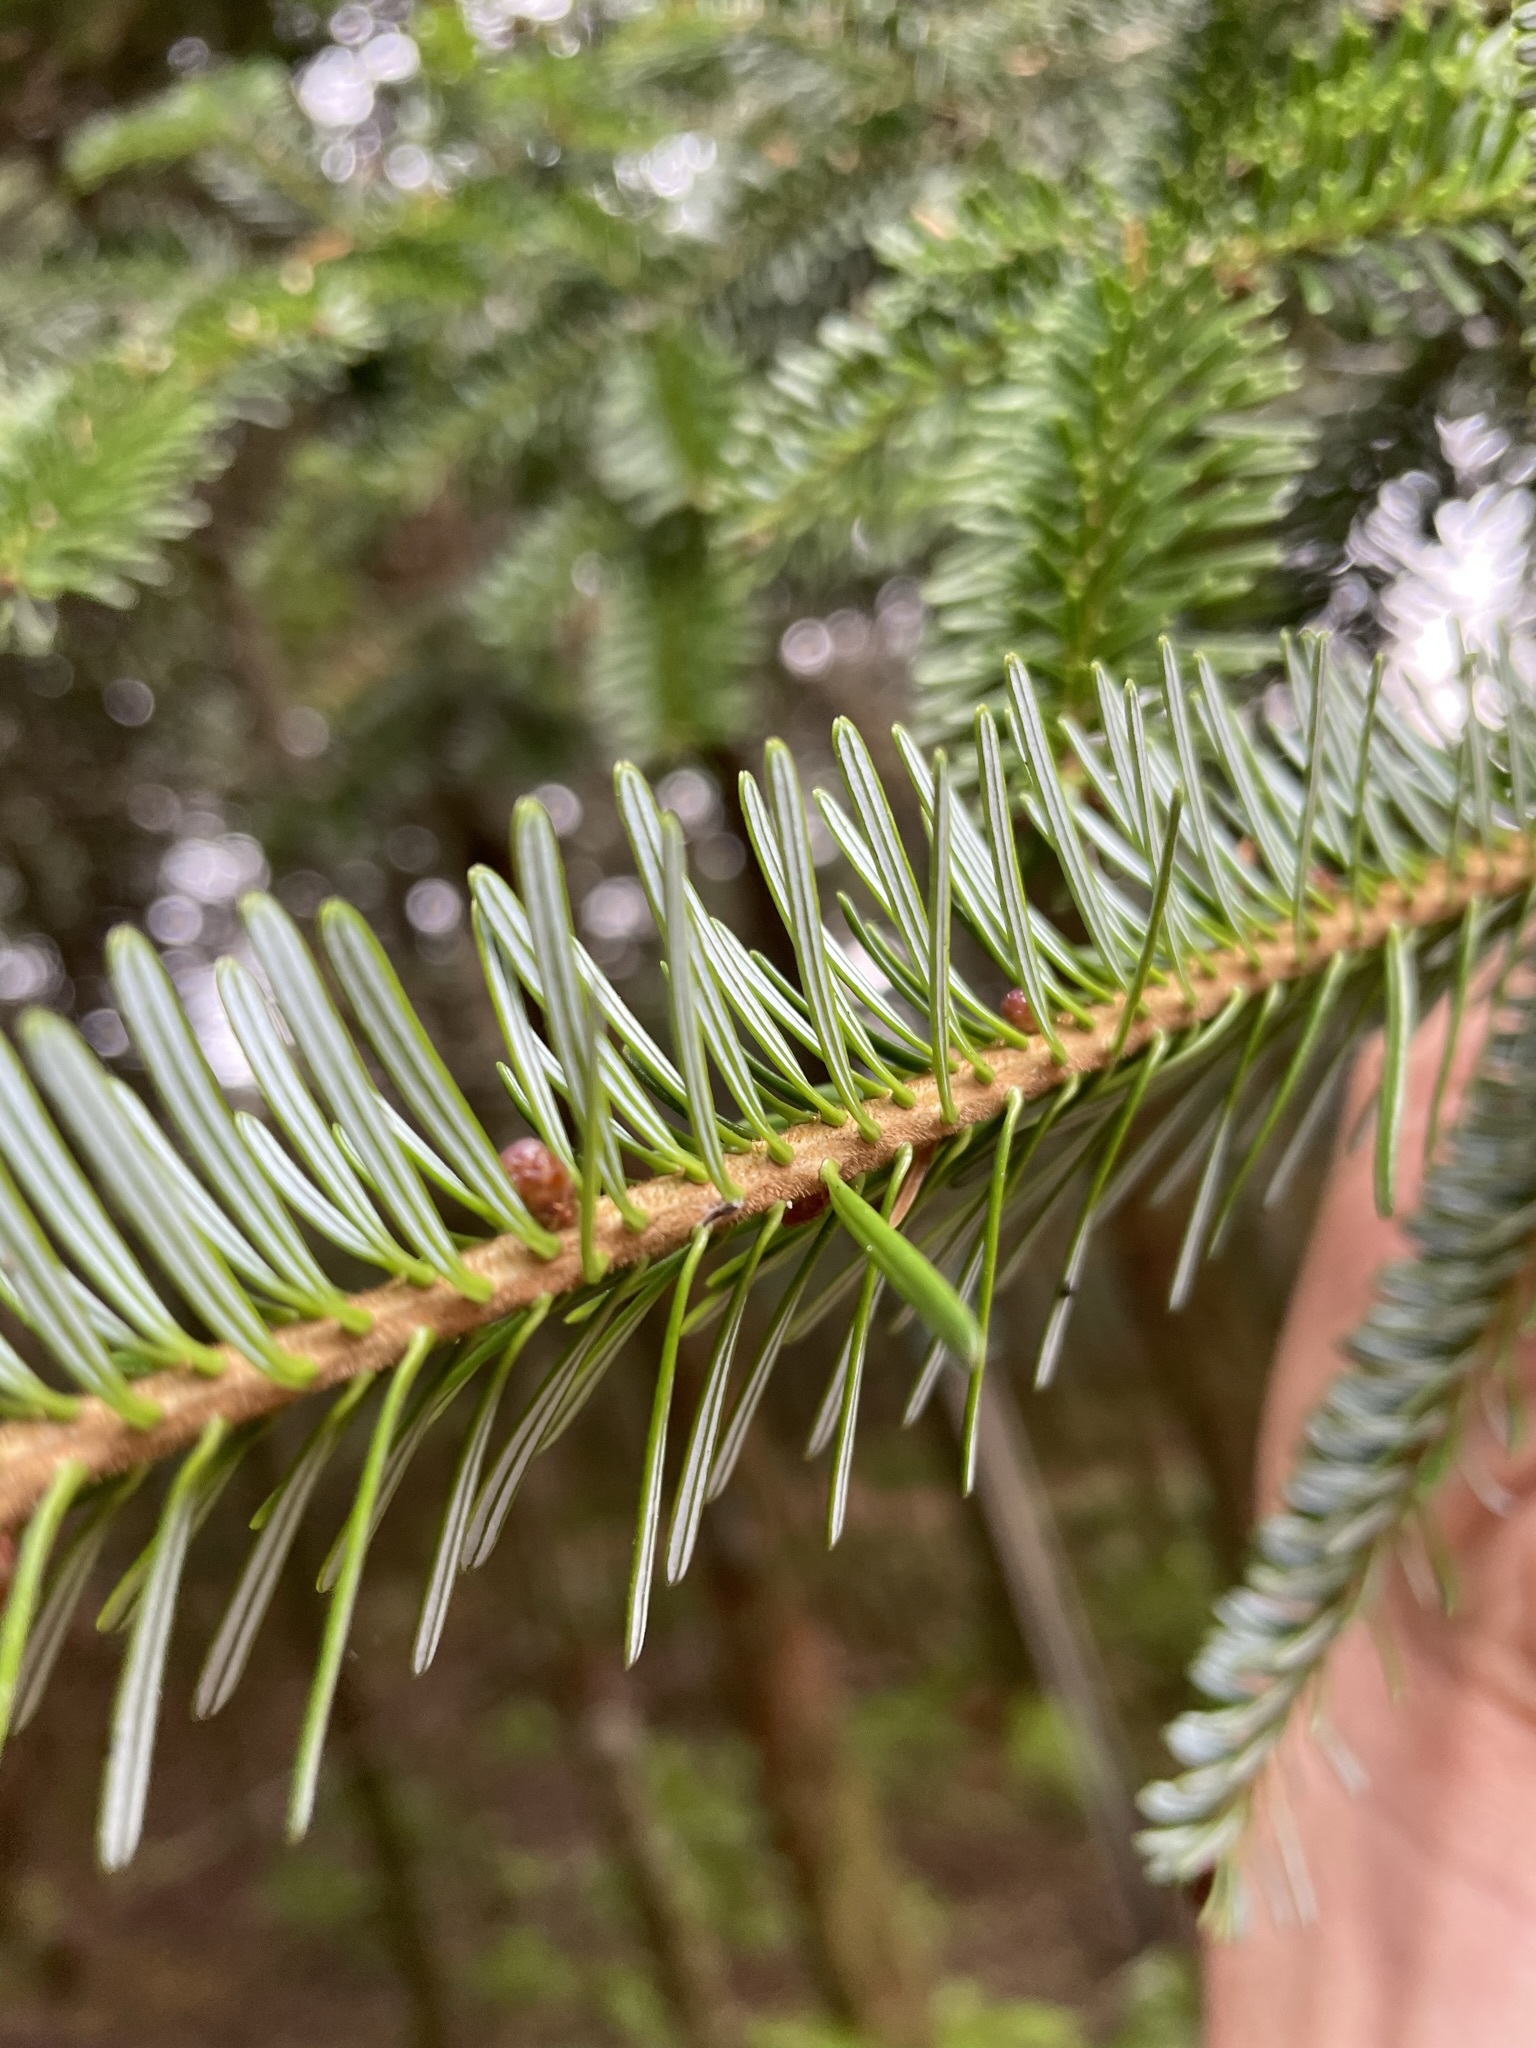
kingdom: Plantae
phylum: Tracheophyta
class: Pinopsida
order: Pinales
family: Pinaceae
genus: Abies
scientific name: Abies fraseri
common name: Fraser fir
